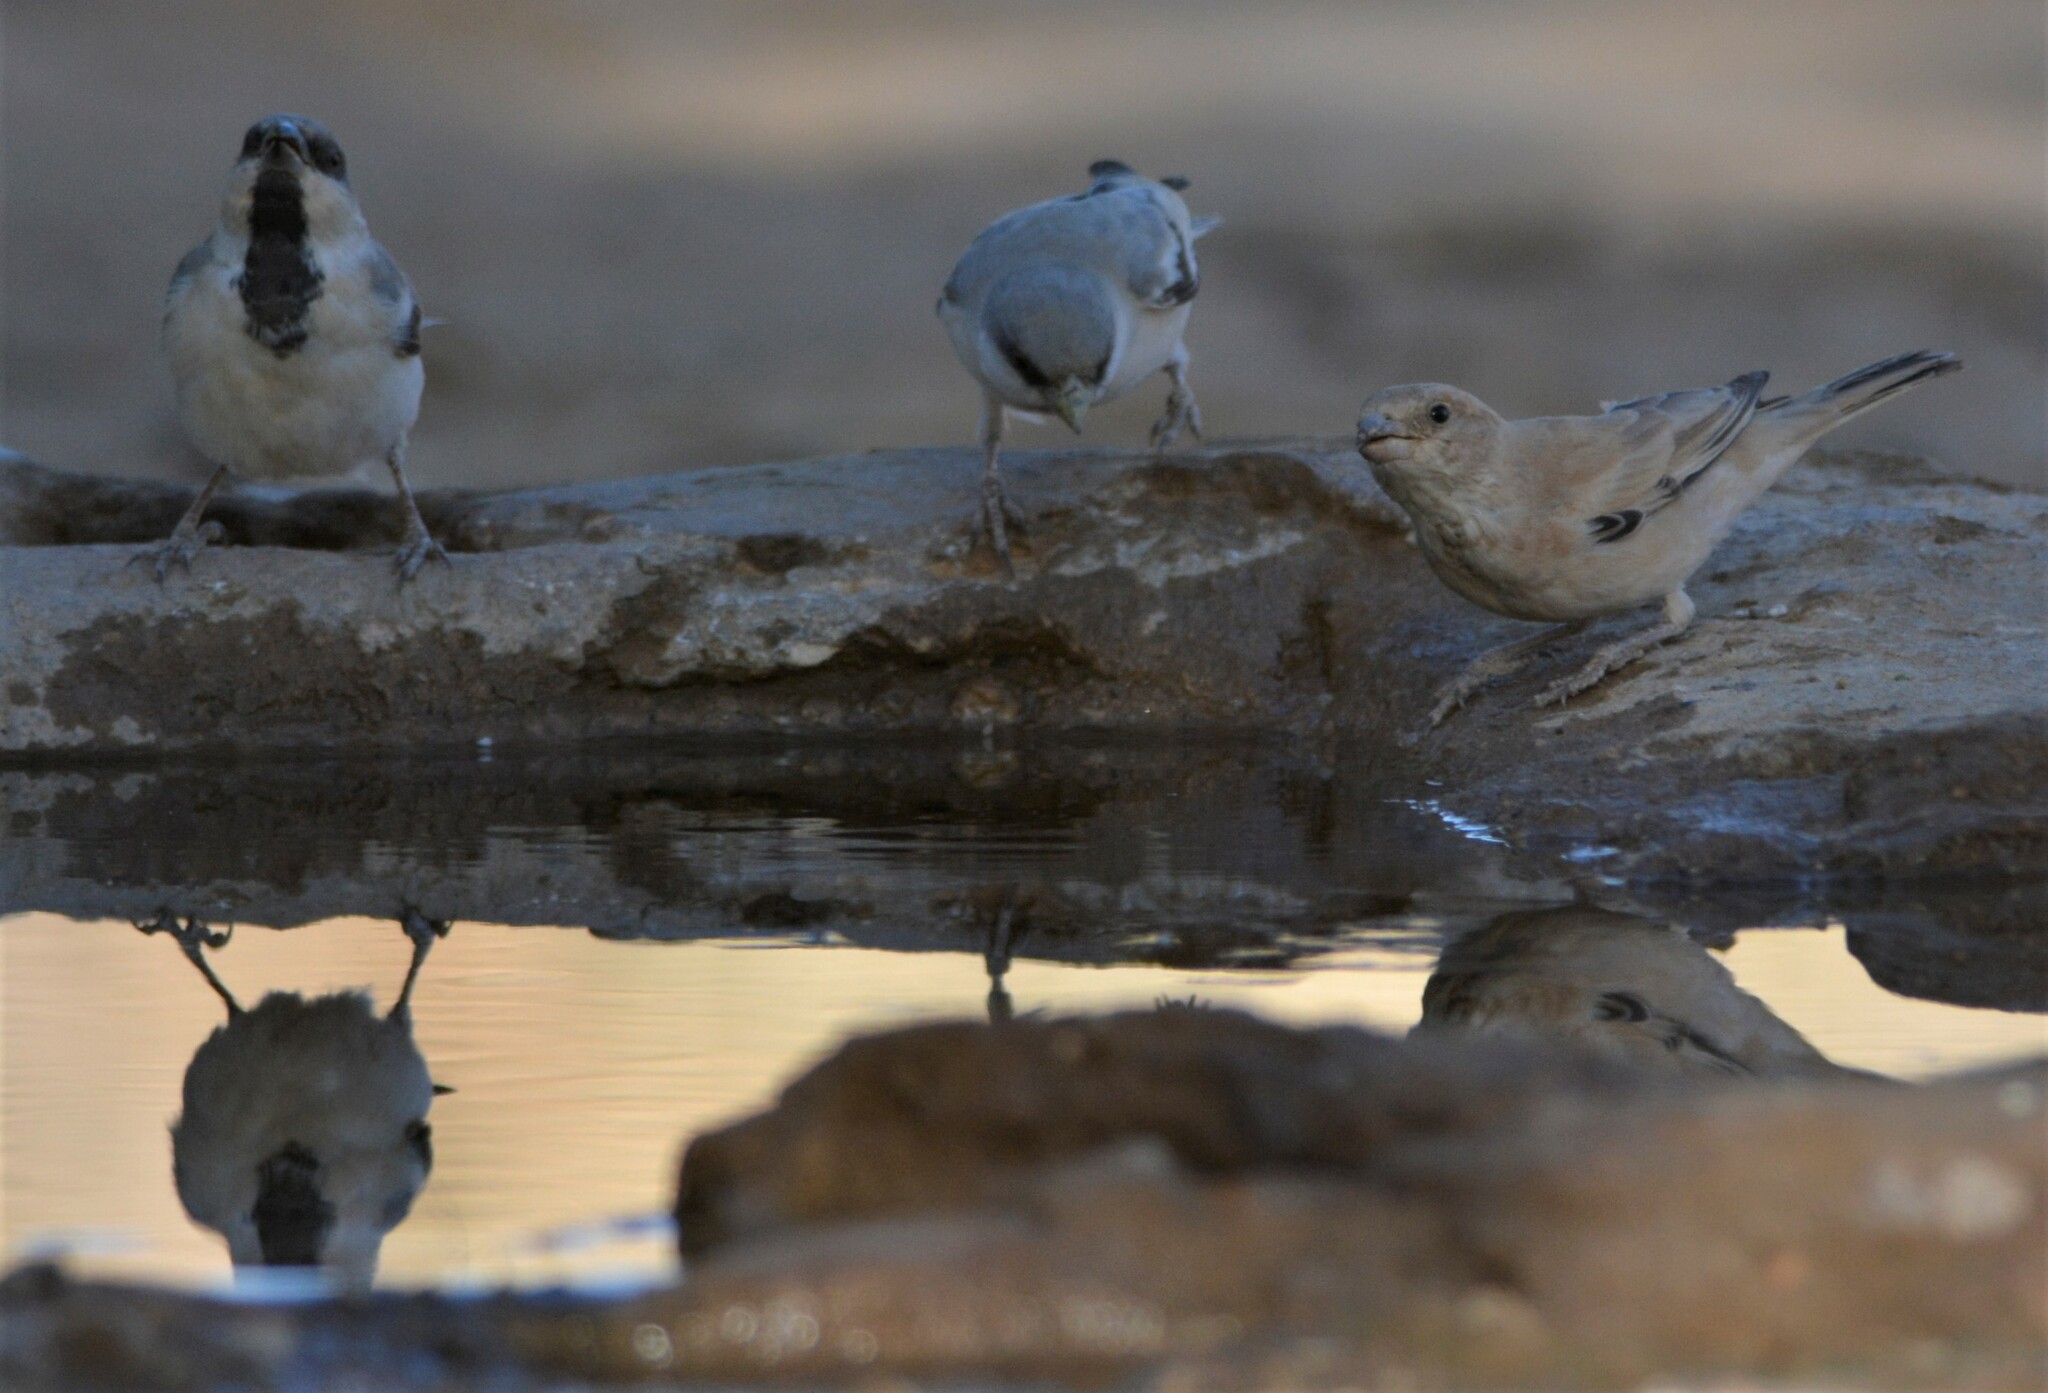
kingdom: Animalia
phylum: Chordata
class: Aves
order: Passeriformes
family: Passeridae
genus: Passer
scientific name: Passer simplex
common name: Desert sparrow
